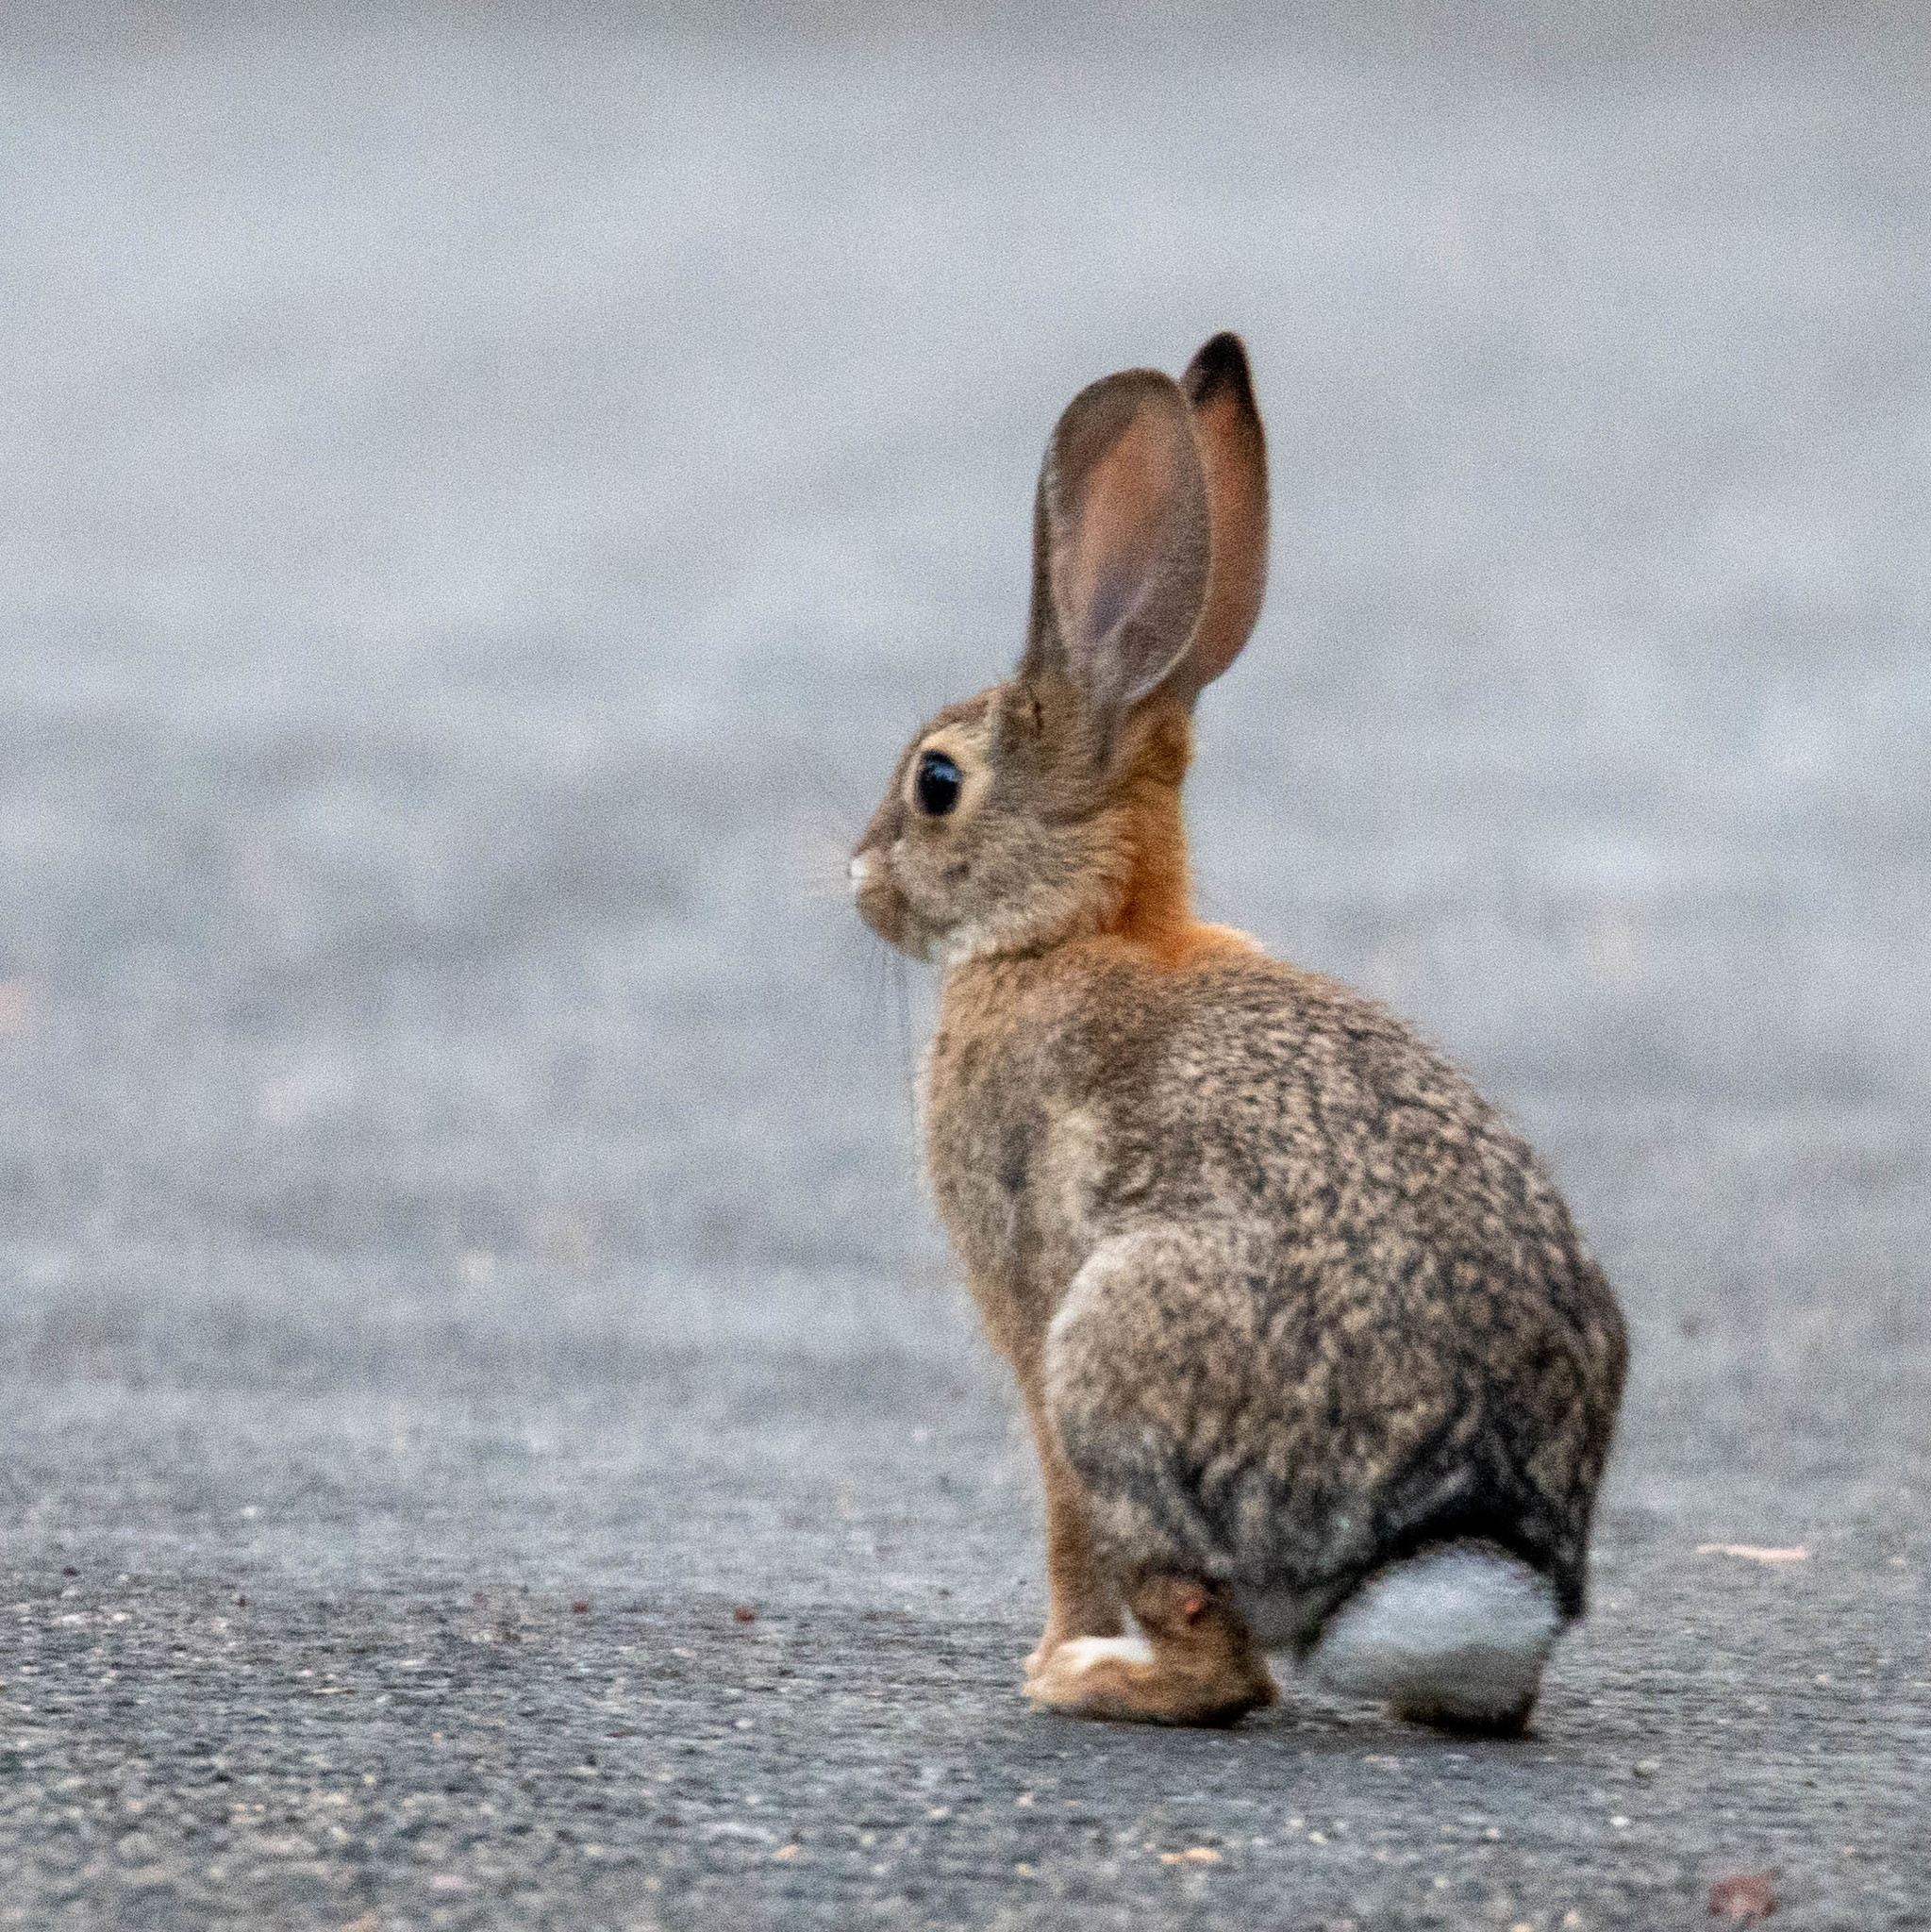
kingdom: Animalia
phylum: Chordata
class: Mammalia
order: Lagomorpha
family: Leporidae
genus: Sylvilagus
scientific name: Sylvilagus audubonii
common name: Desert cottontail
